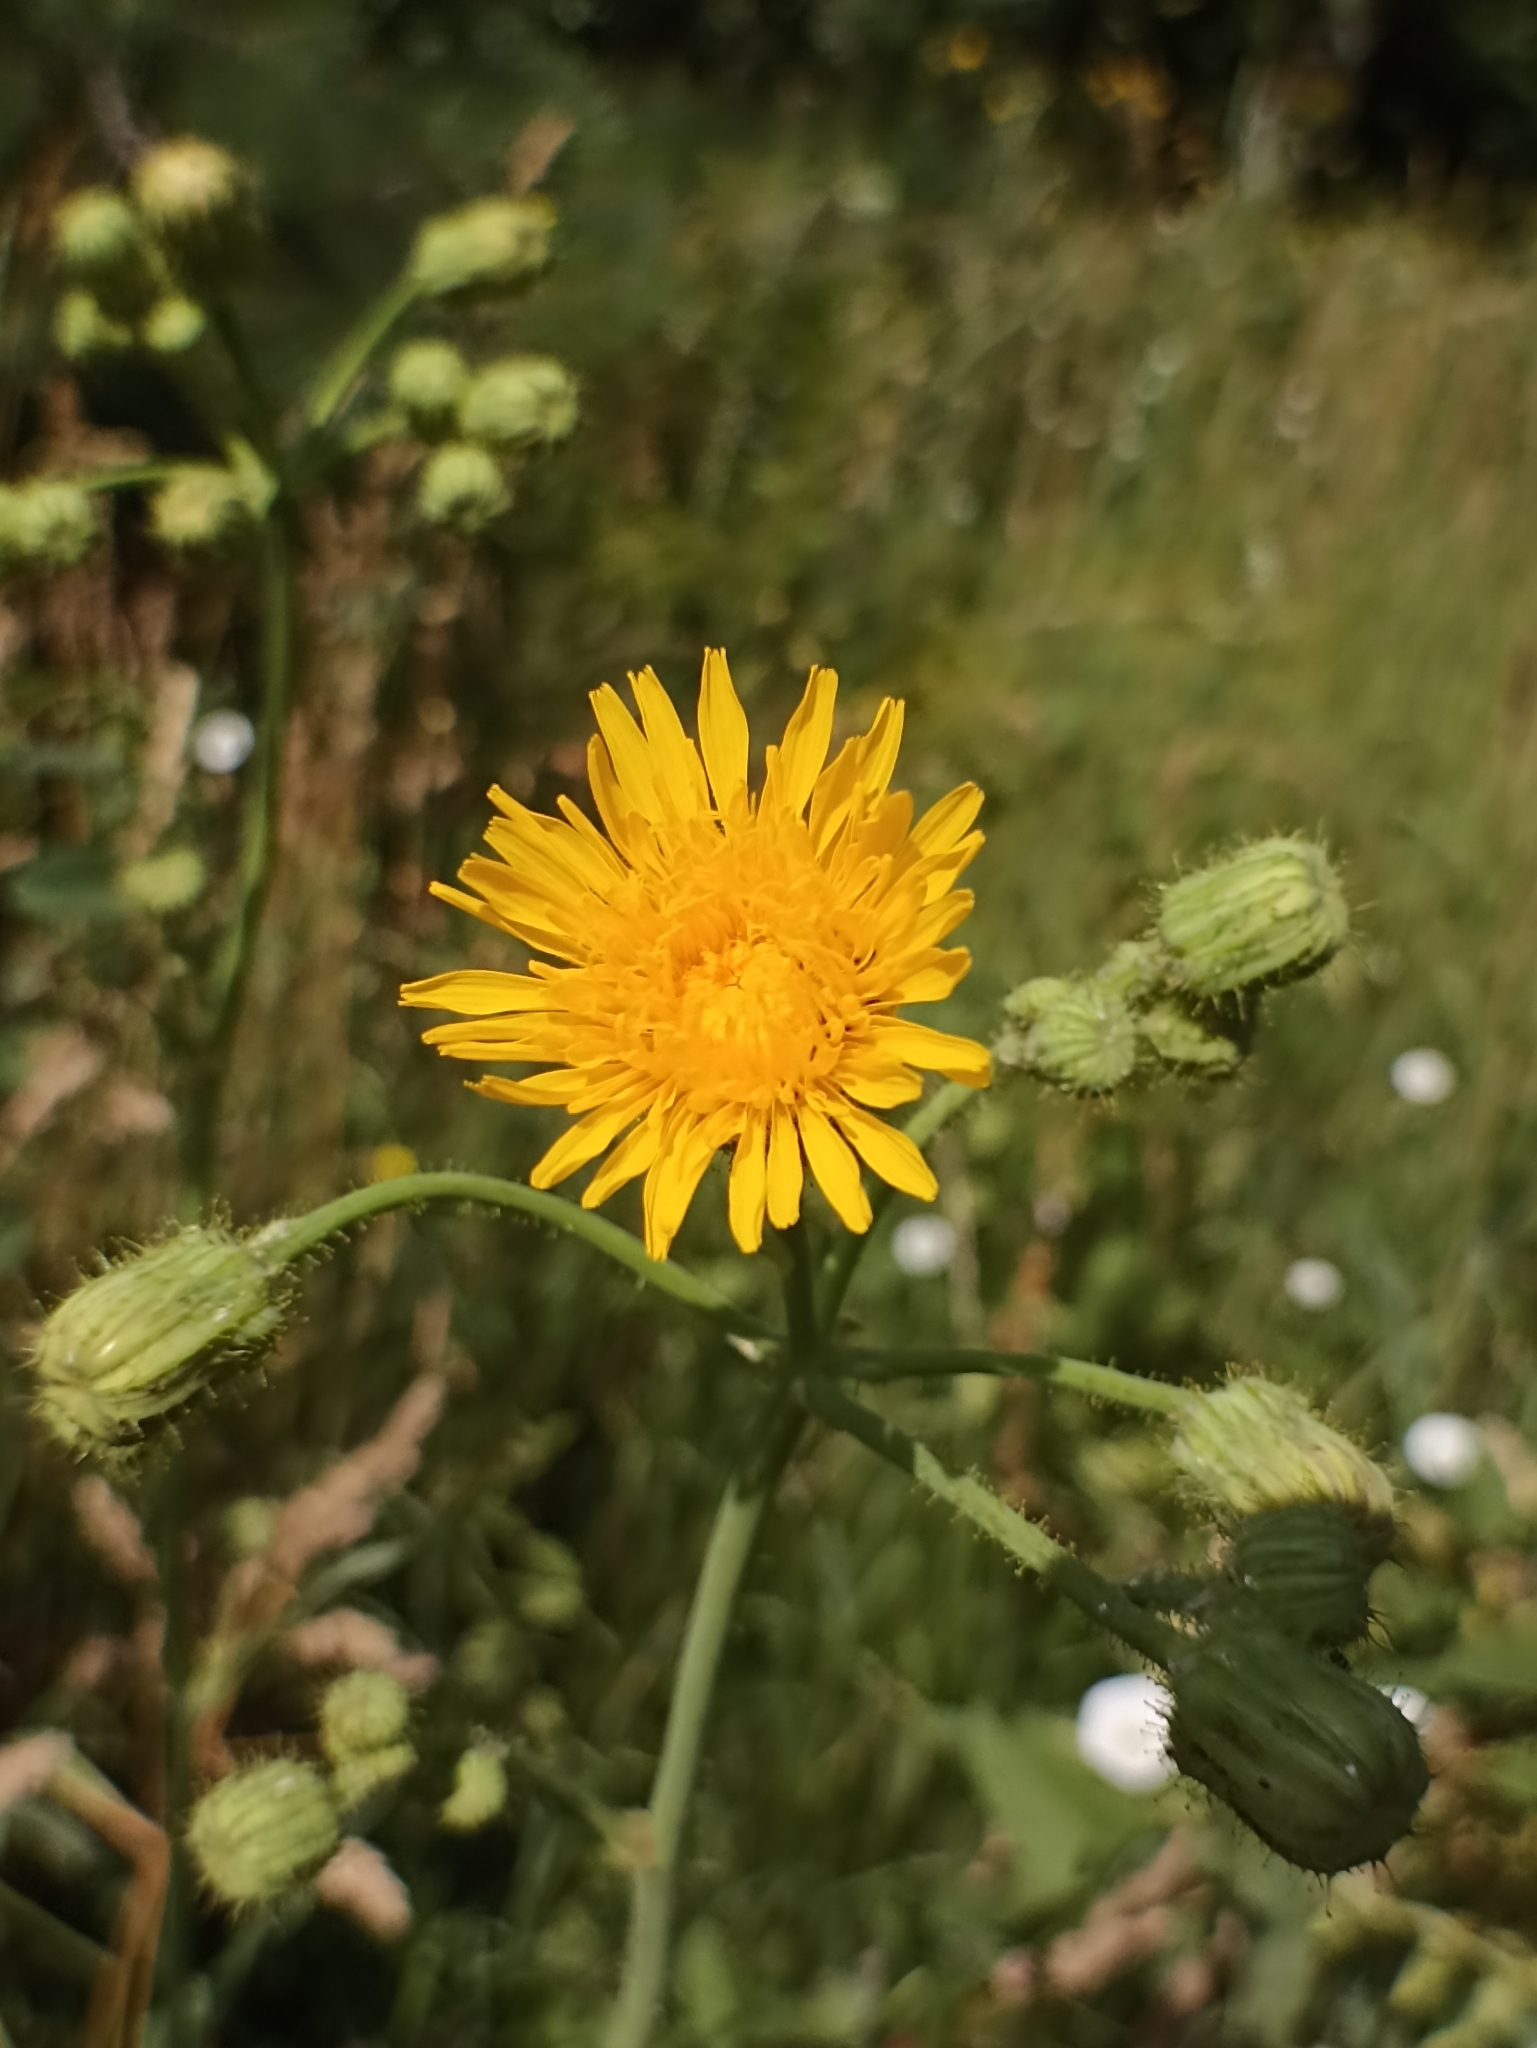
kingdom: Plantae
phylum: Tracheophyta
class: Magnoliopsida
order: Asterales
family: Asteraceae
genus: Sonchus
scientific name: Sonchus arvensis
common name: Perennial sow-thistle
